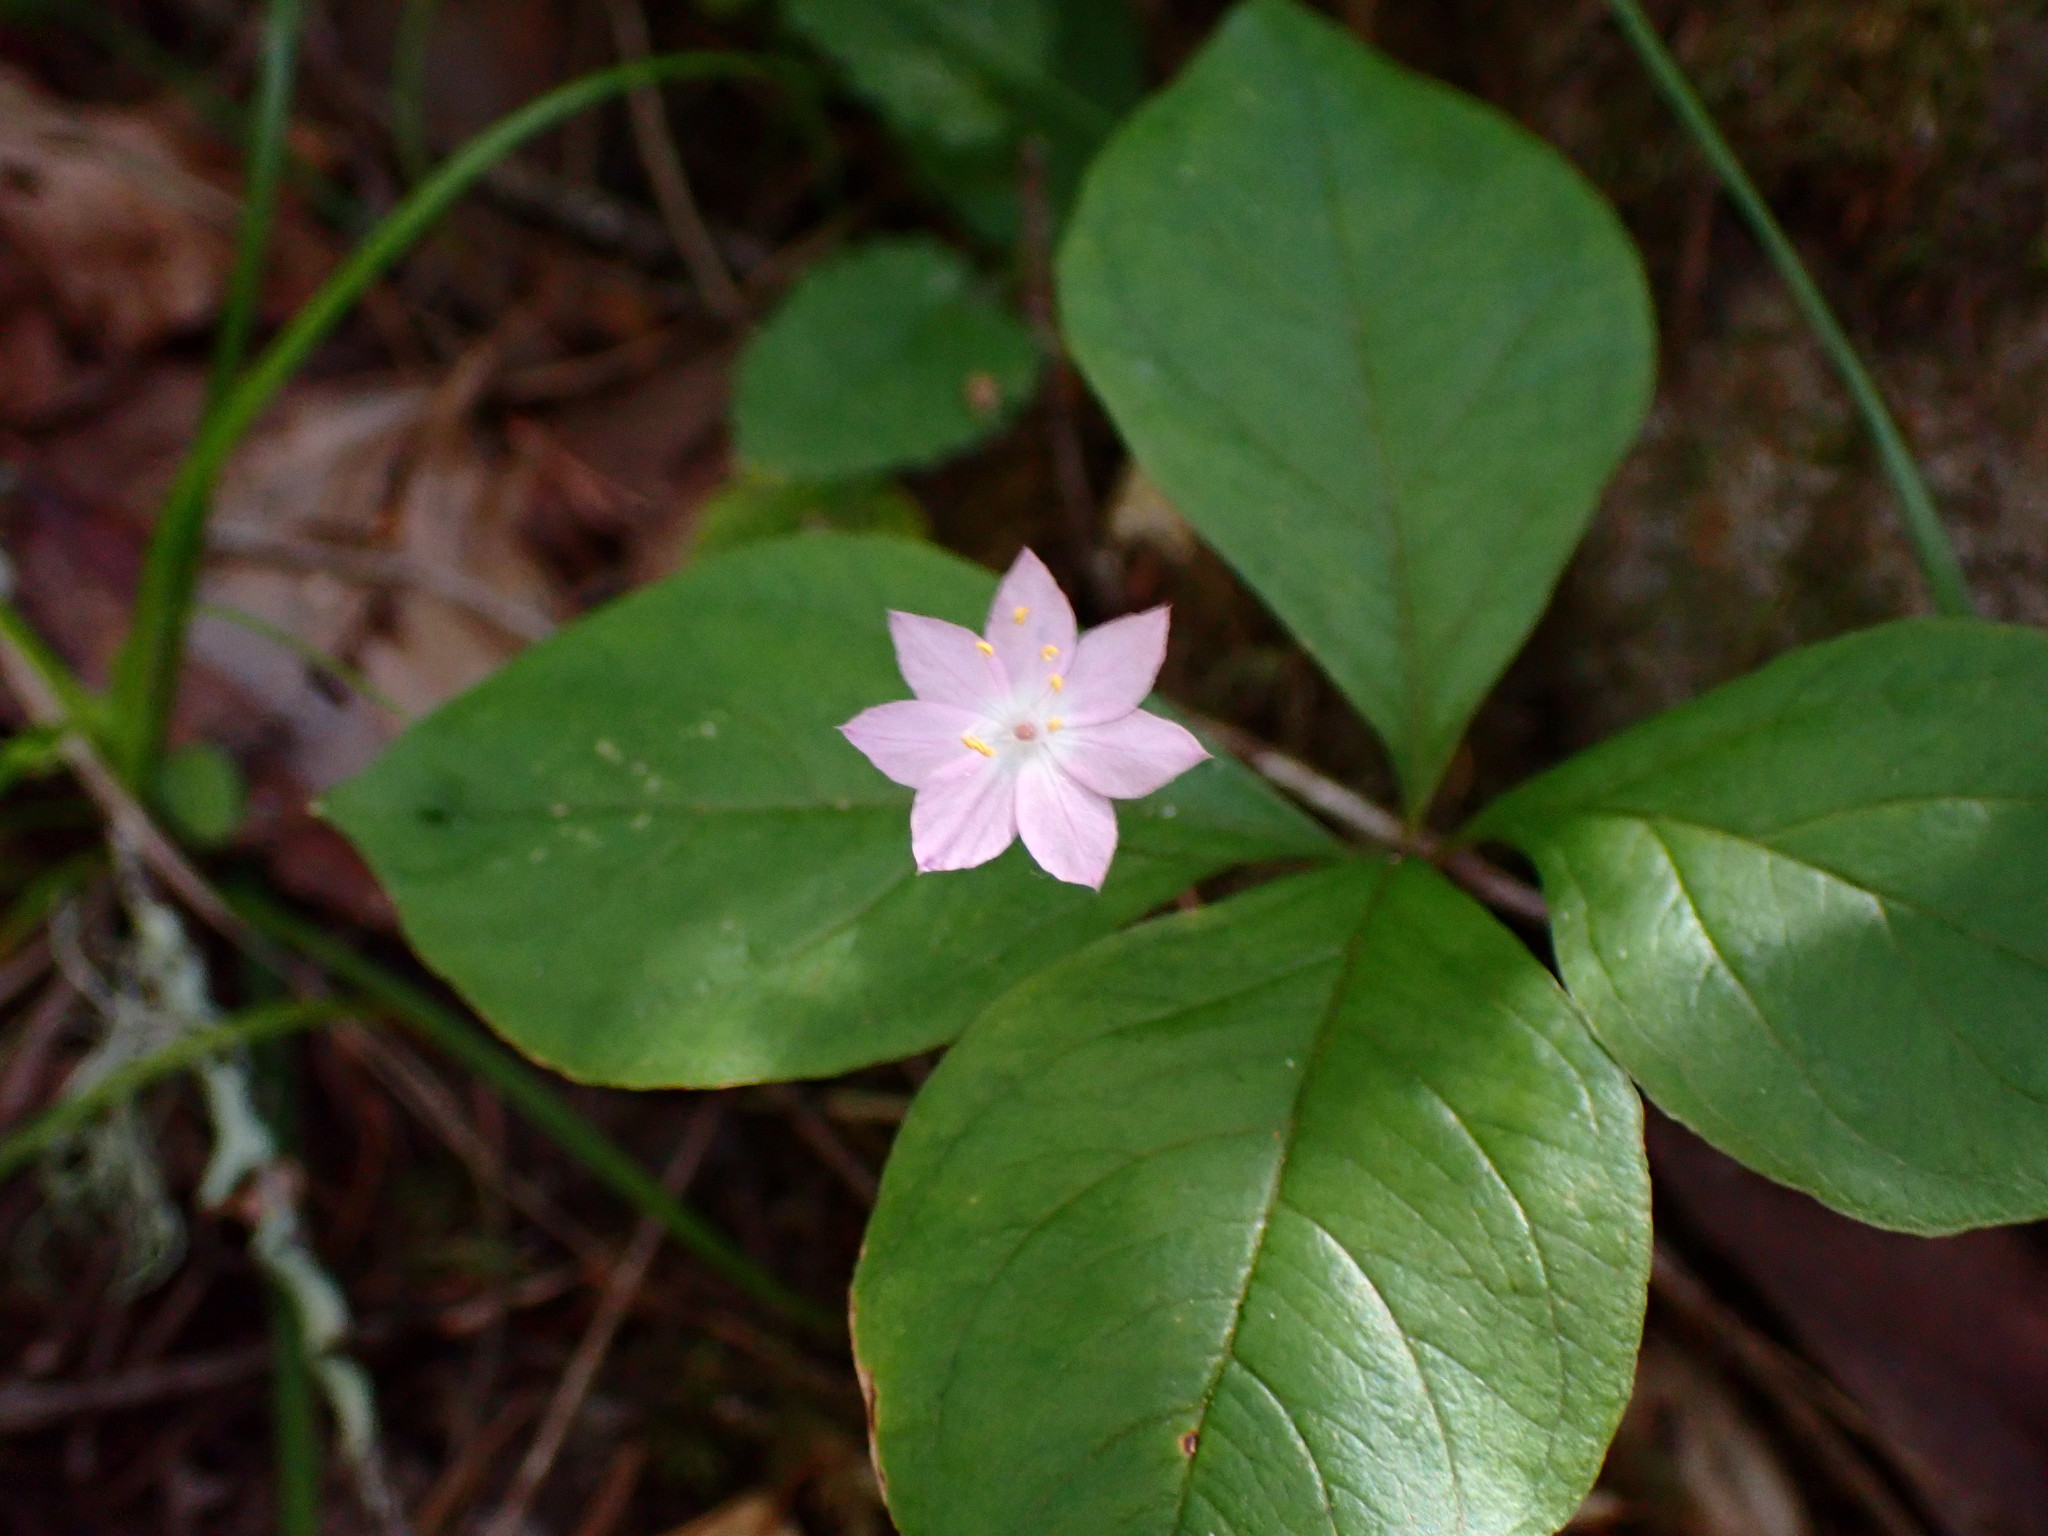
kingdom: Plantae
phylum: Tracheophyta
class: Magnoliopsida
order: Ericales
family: Primulaceae
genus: Lysimachia
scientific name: Lysimachia latifolia
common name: Pacific starflower
